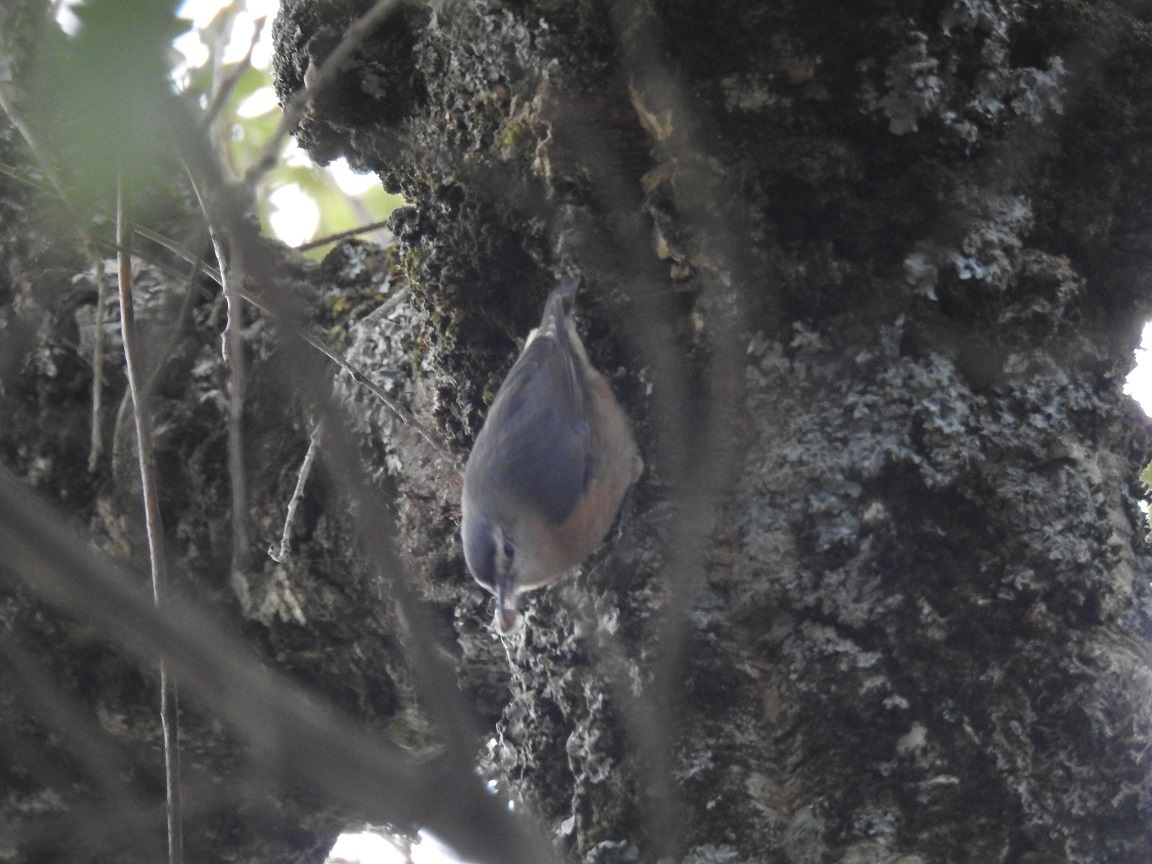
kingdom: Animalia
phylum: Chordata
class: Aves
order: Passeriformes
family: Sittidae
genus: Sitta
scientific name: Sitta ledanti
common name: Algerian nuthatch
